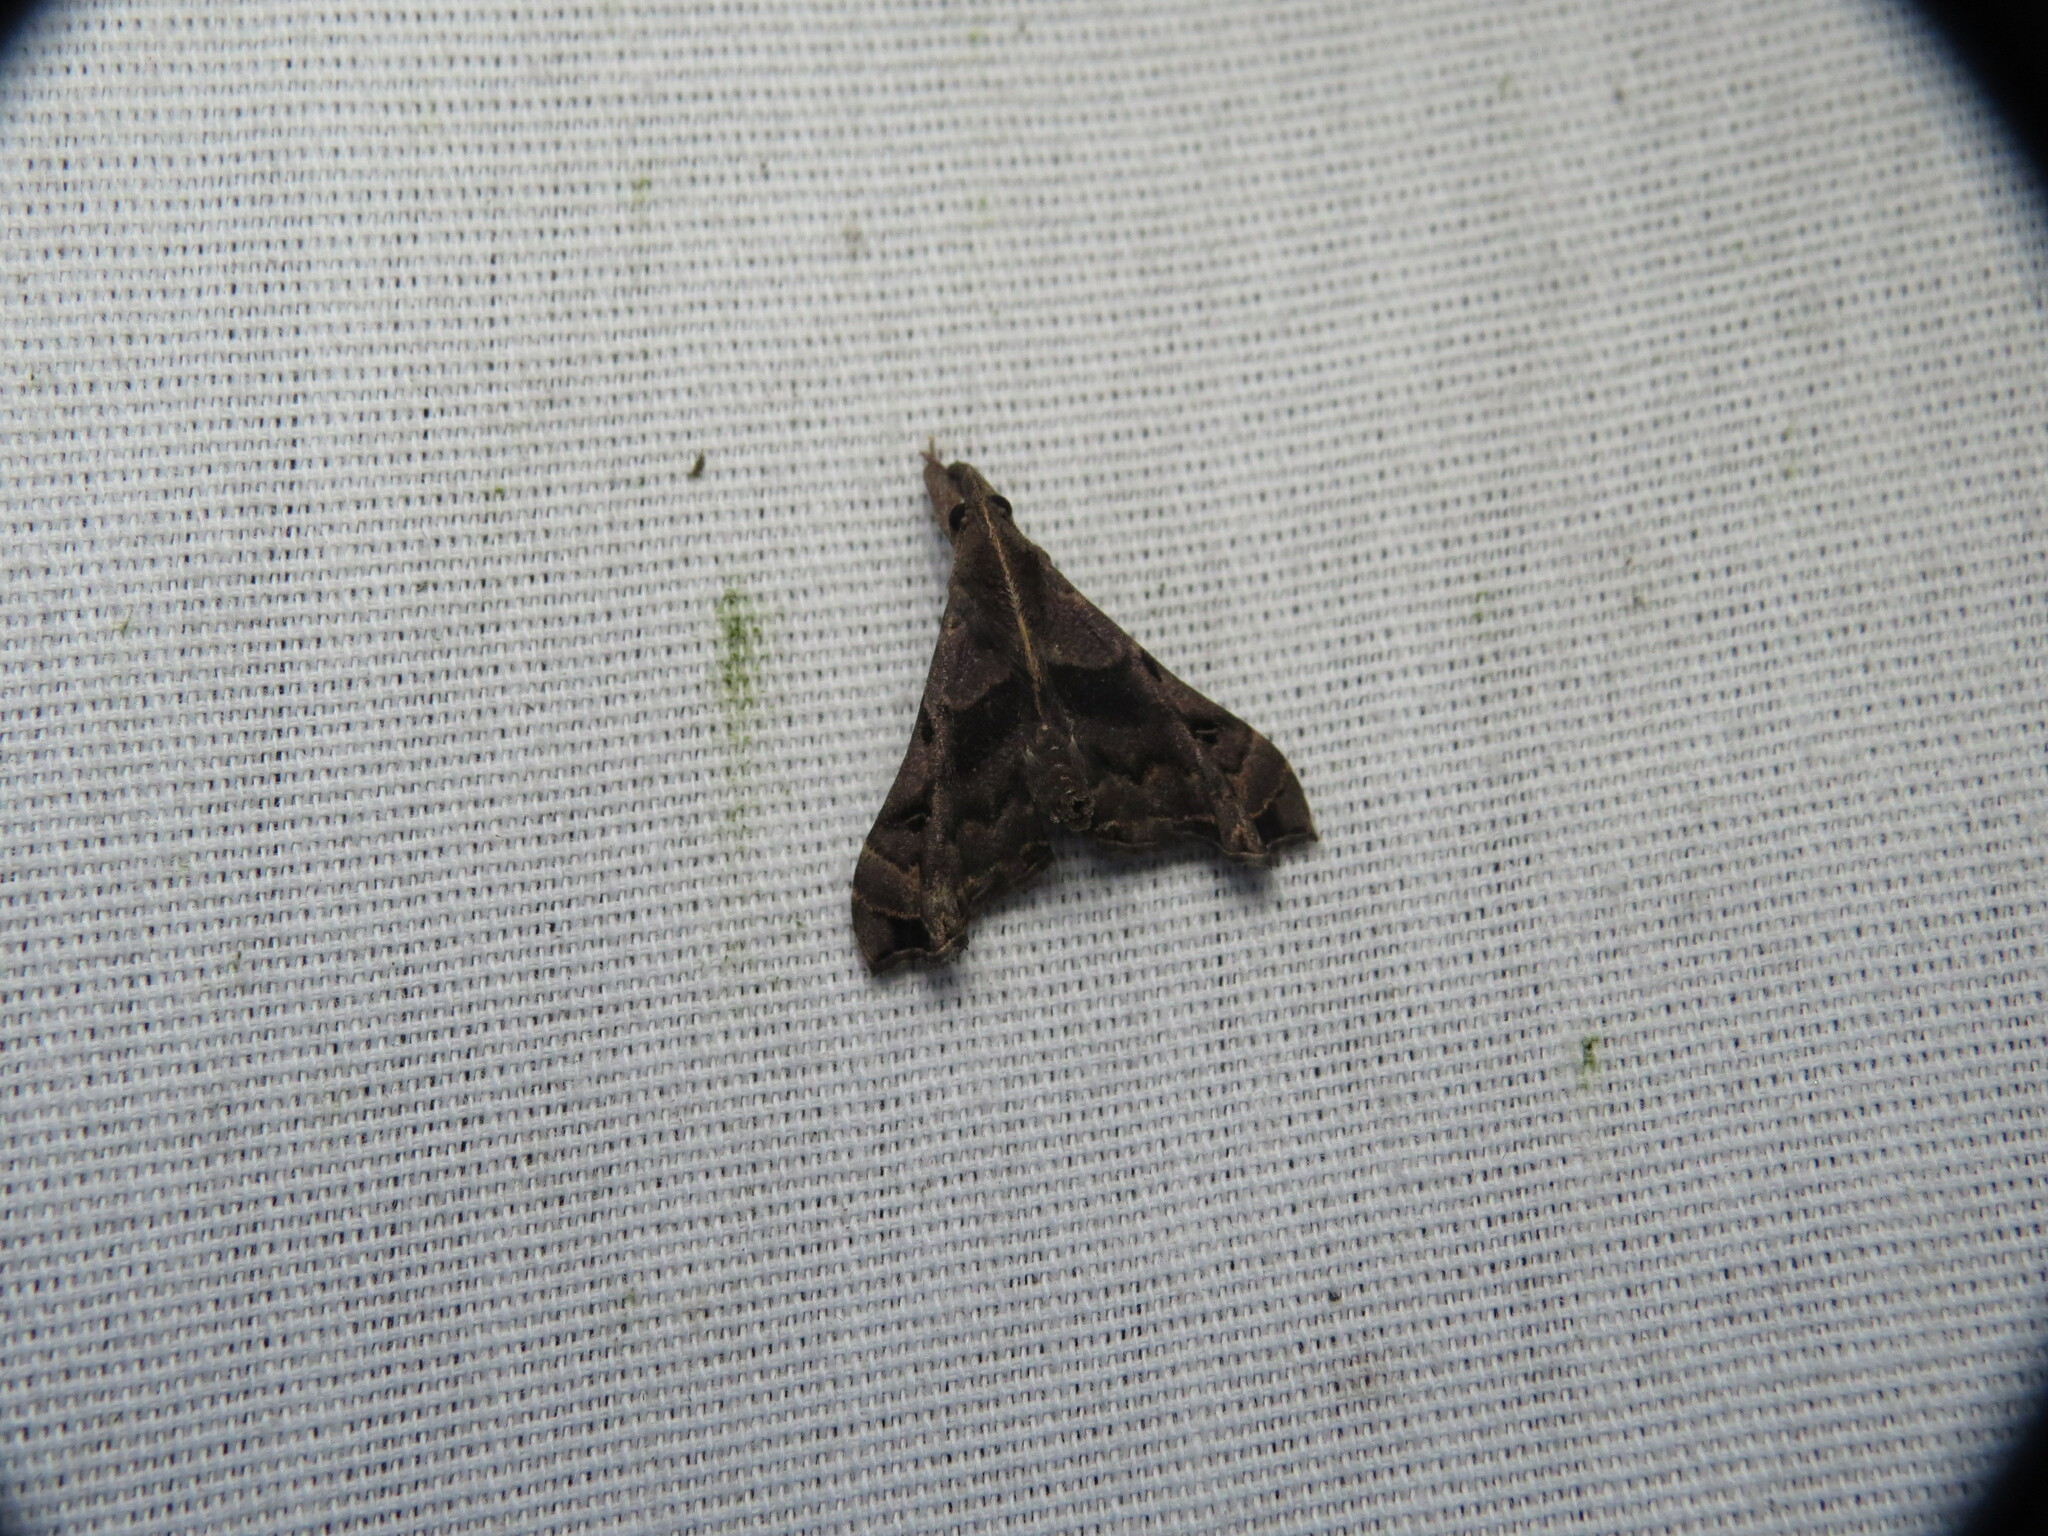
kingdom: Animalia
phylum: Arthropoda
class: Insecta
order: Lepidoptera
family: Erebidae
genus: Palthis
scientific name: Palthis asopialis
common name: Faint-spotted palthis moth
